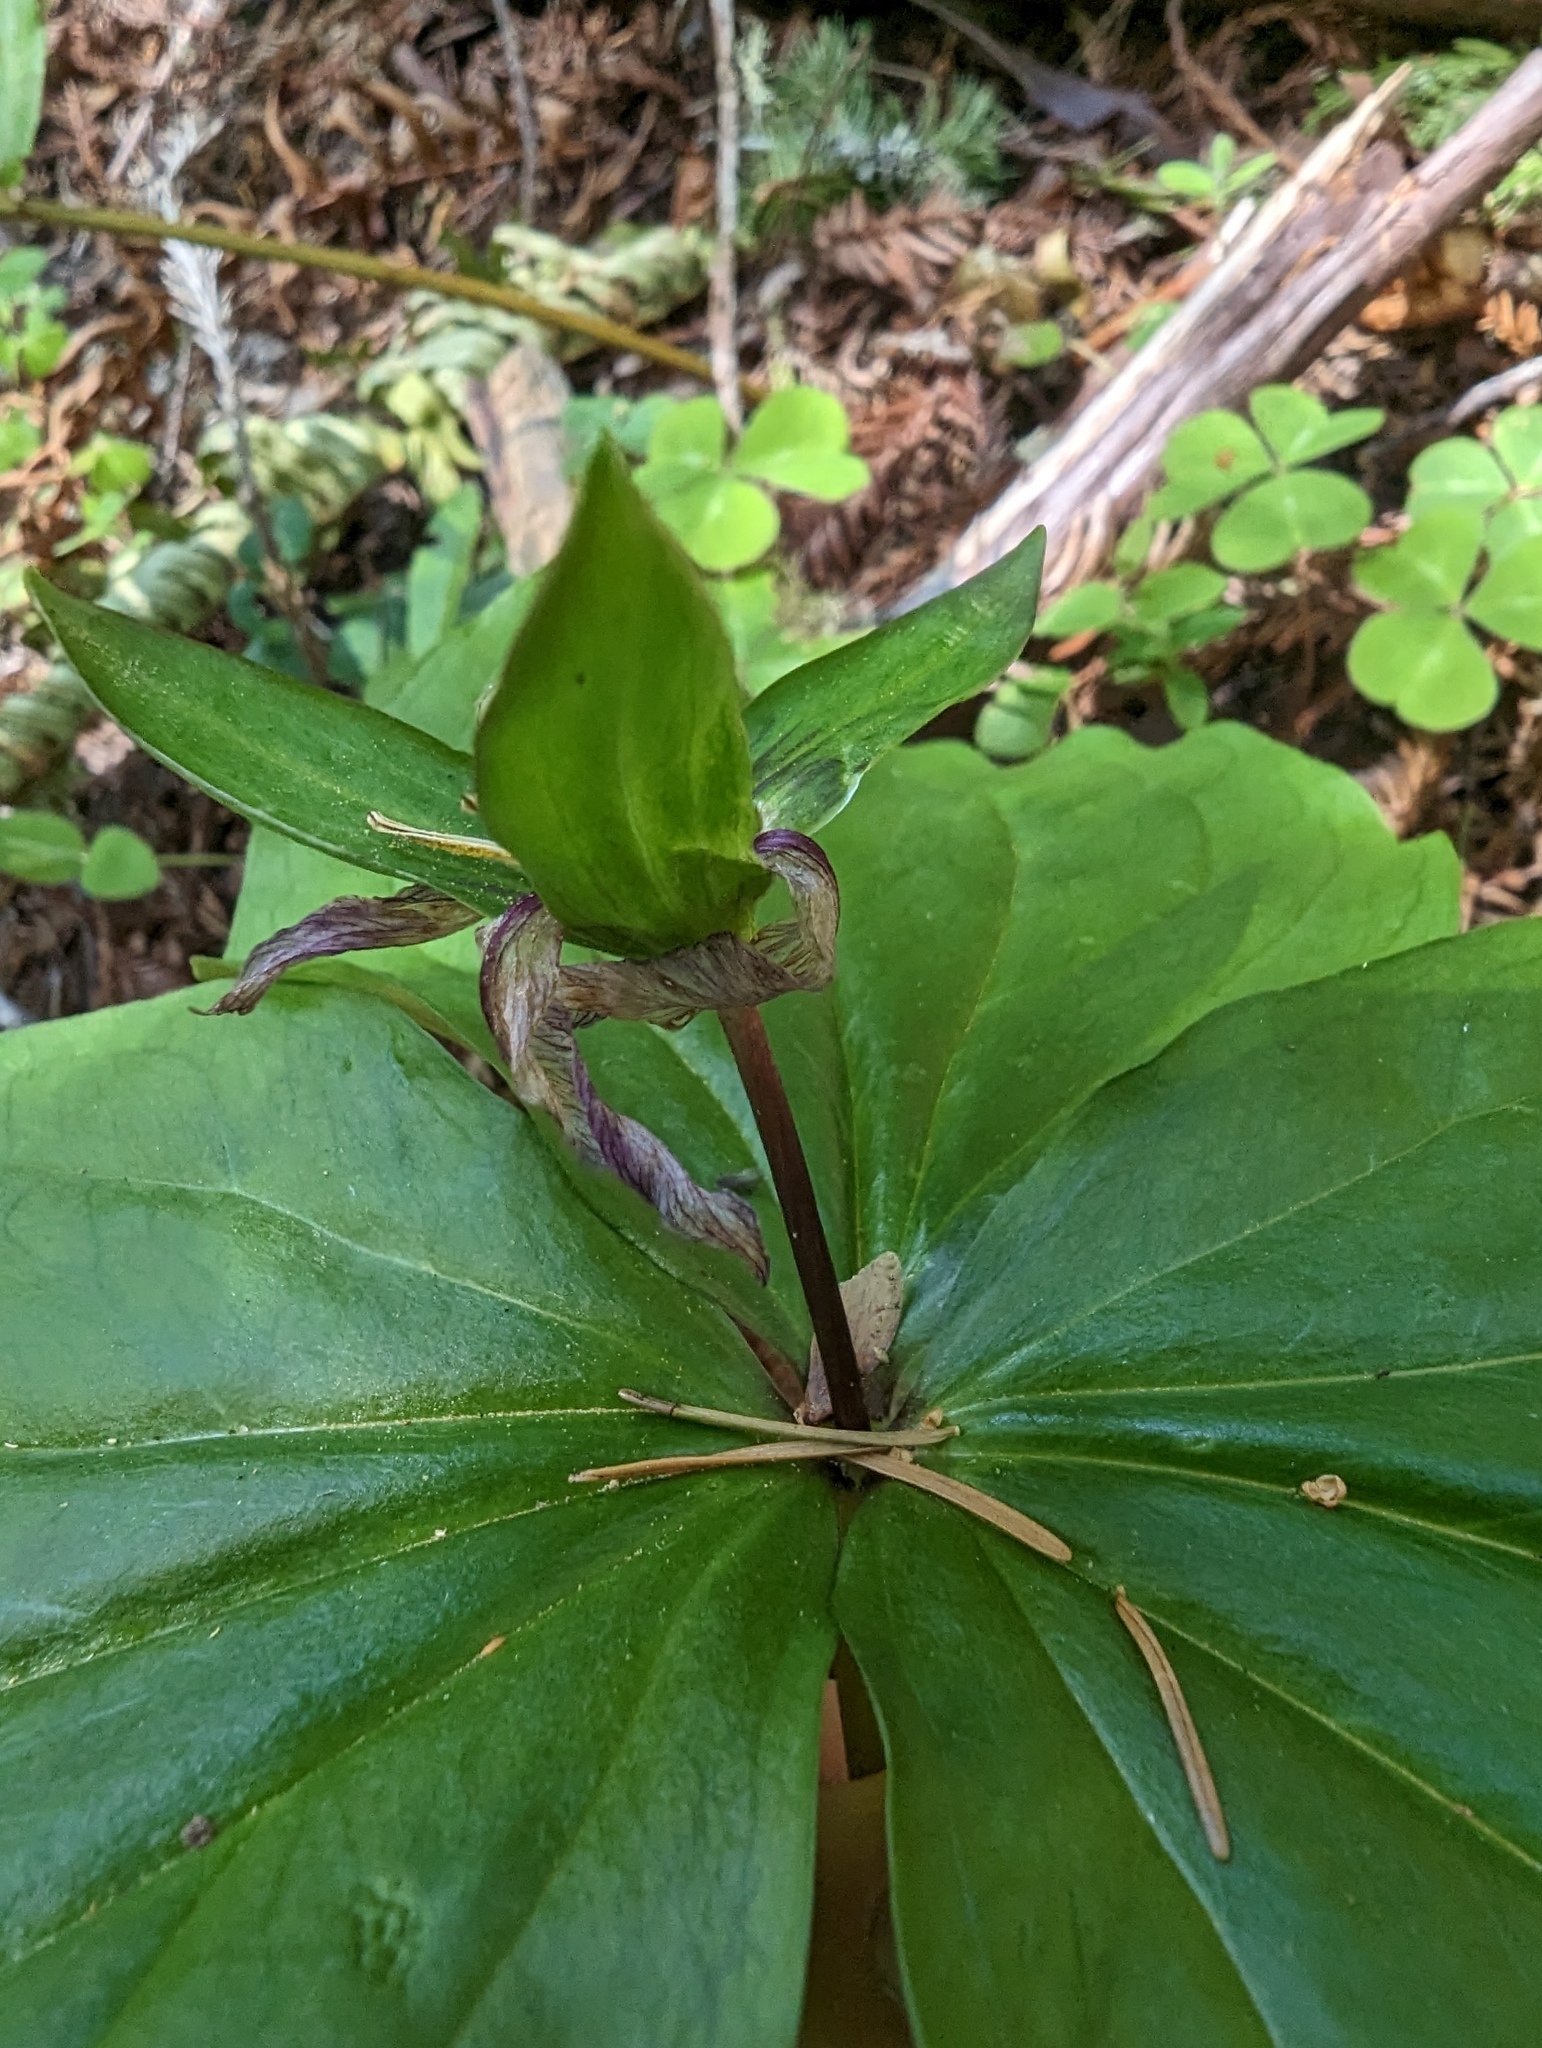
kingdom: Plantae
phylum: Tracheophyta
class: Liliopsida
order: Liliales
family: Melanthiaceae
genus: Trillium
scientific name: Trillium ovatum
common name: Pacific trillium
